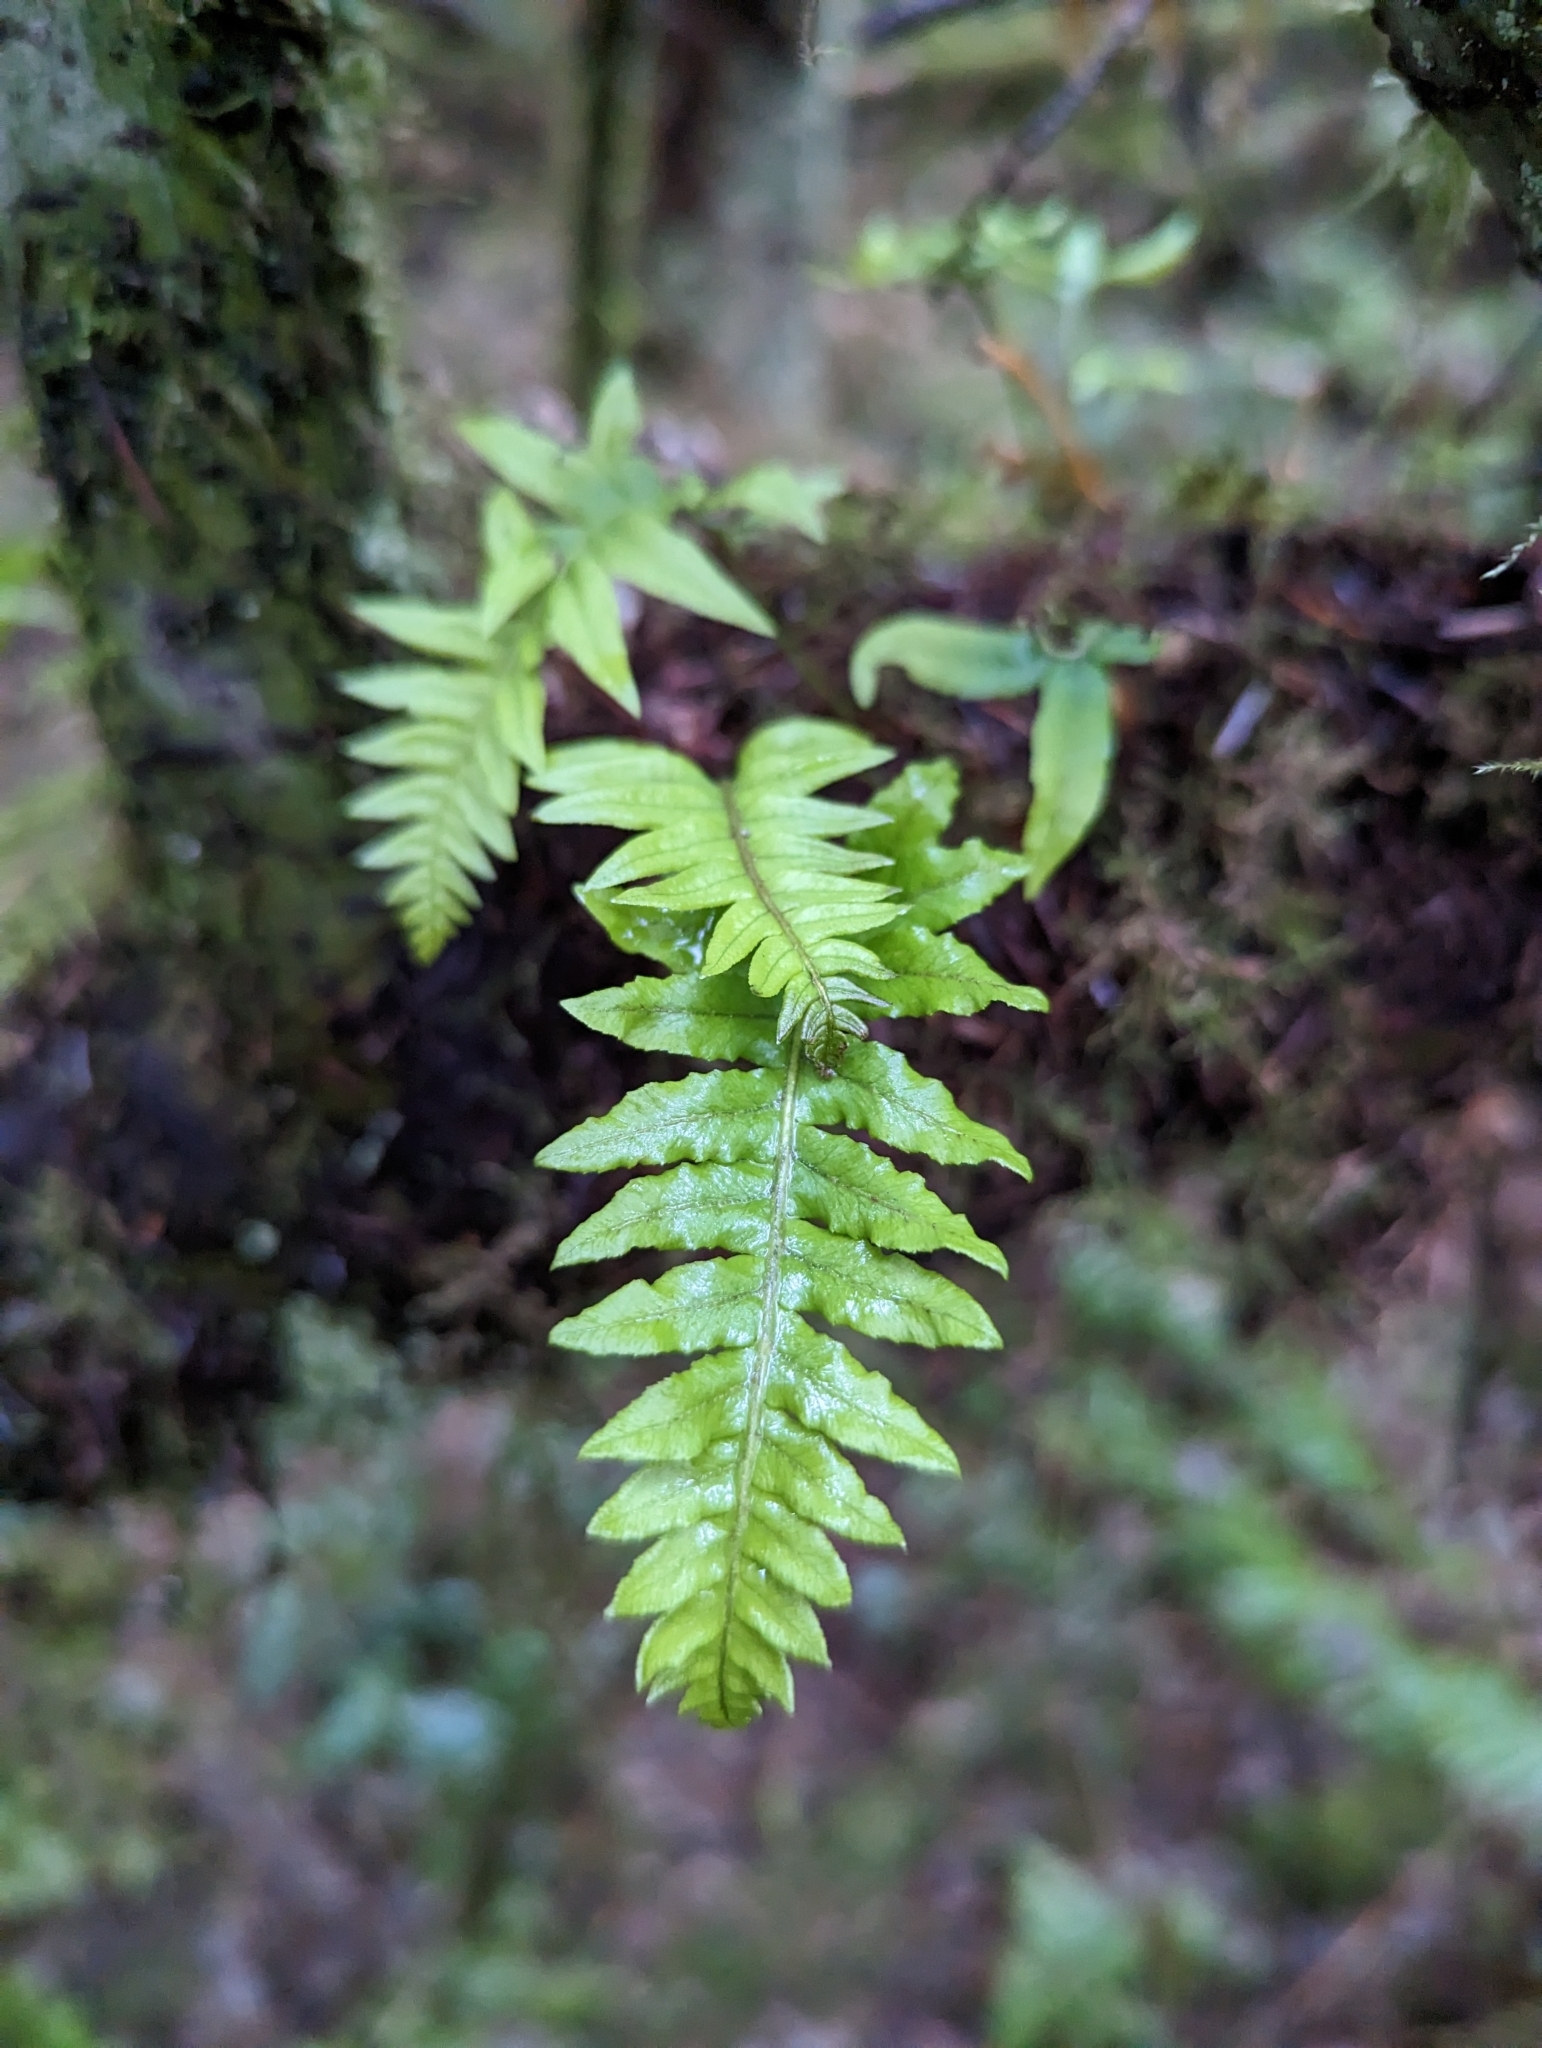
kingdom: Plantae
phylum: Tracheophyta
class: Polypodiopsida
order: Polypodiales
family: Polypodiaceae
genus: Polypodium
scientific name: Polypodium glycyrrhiza
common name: Licorice fern
